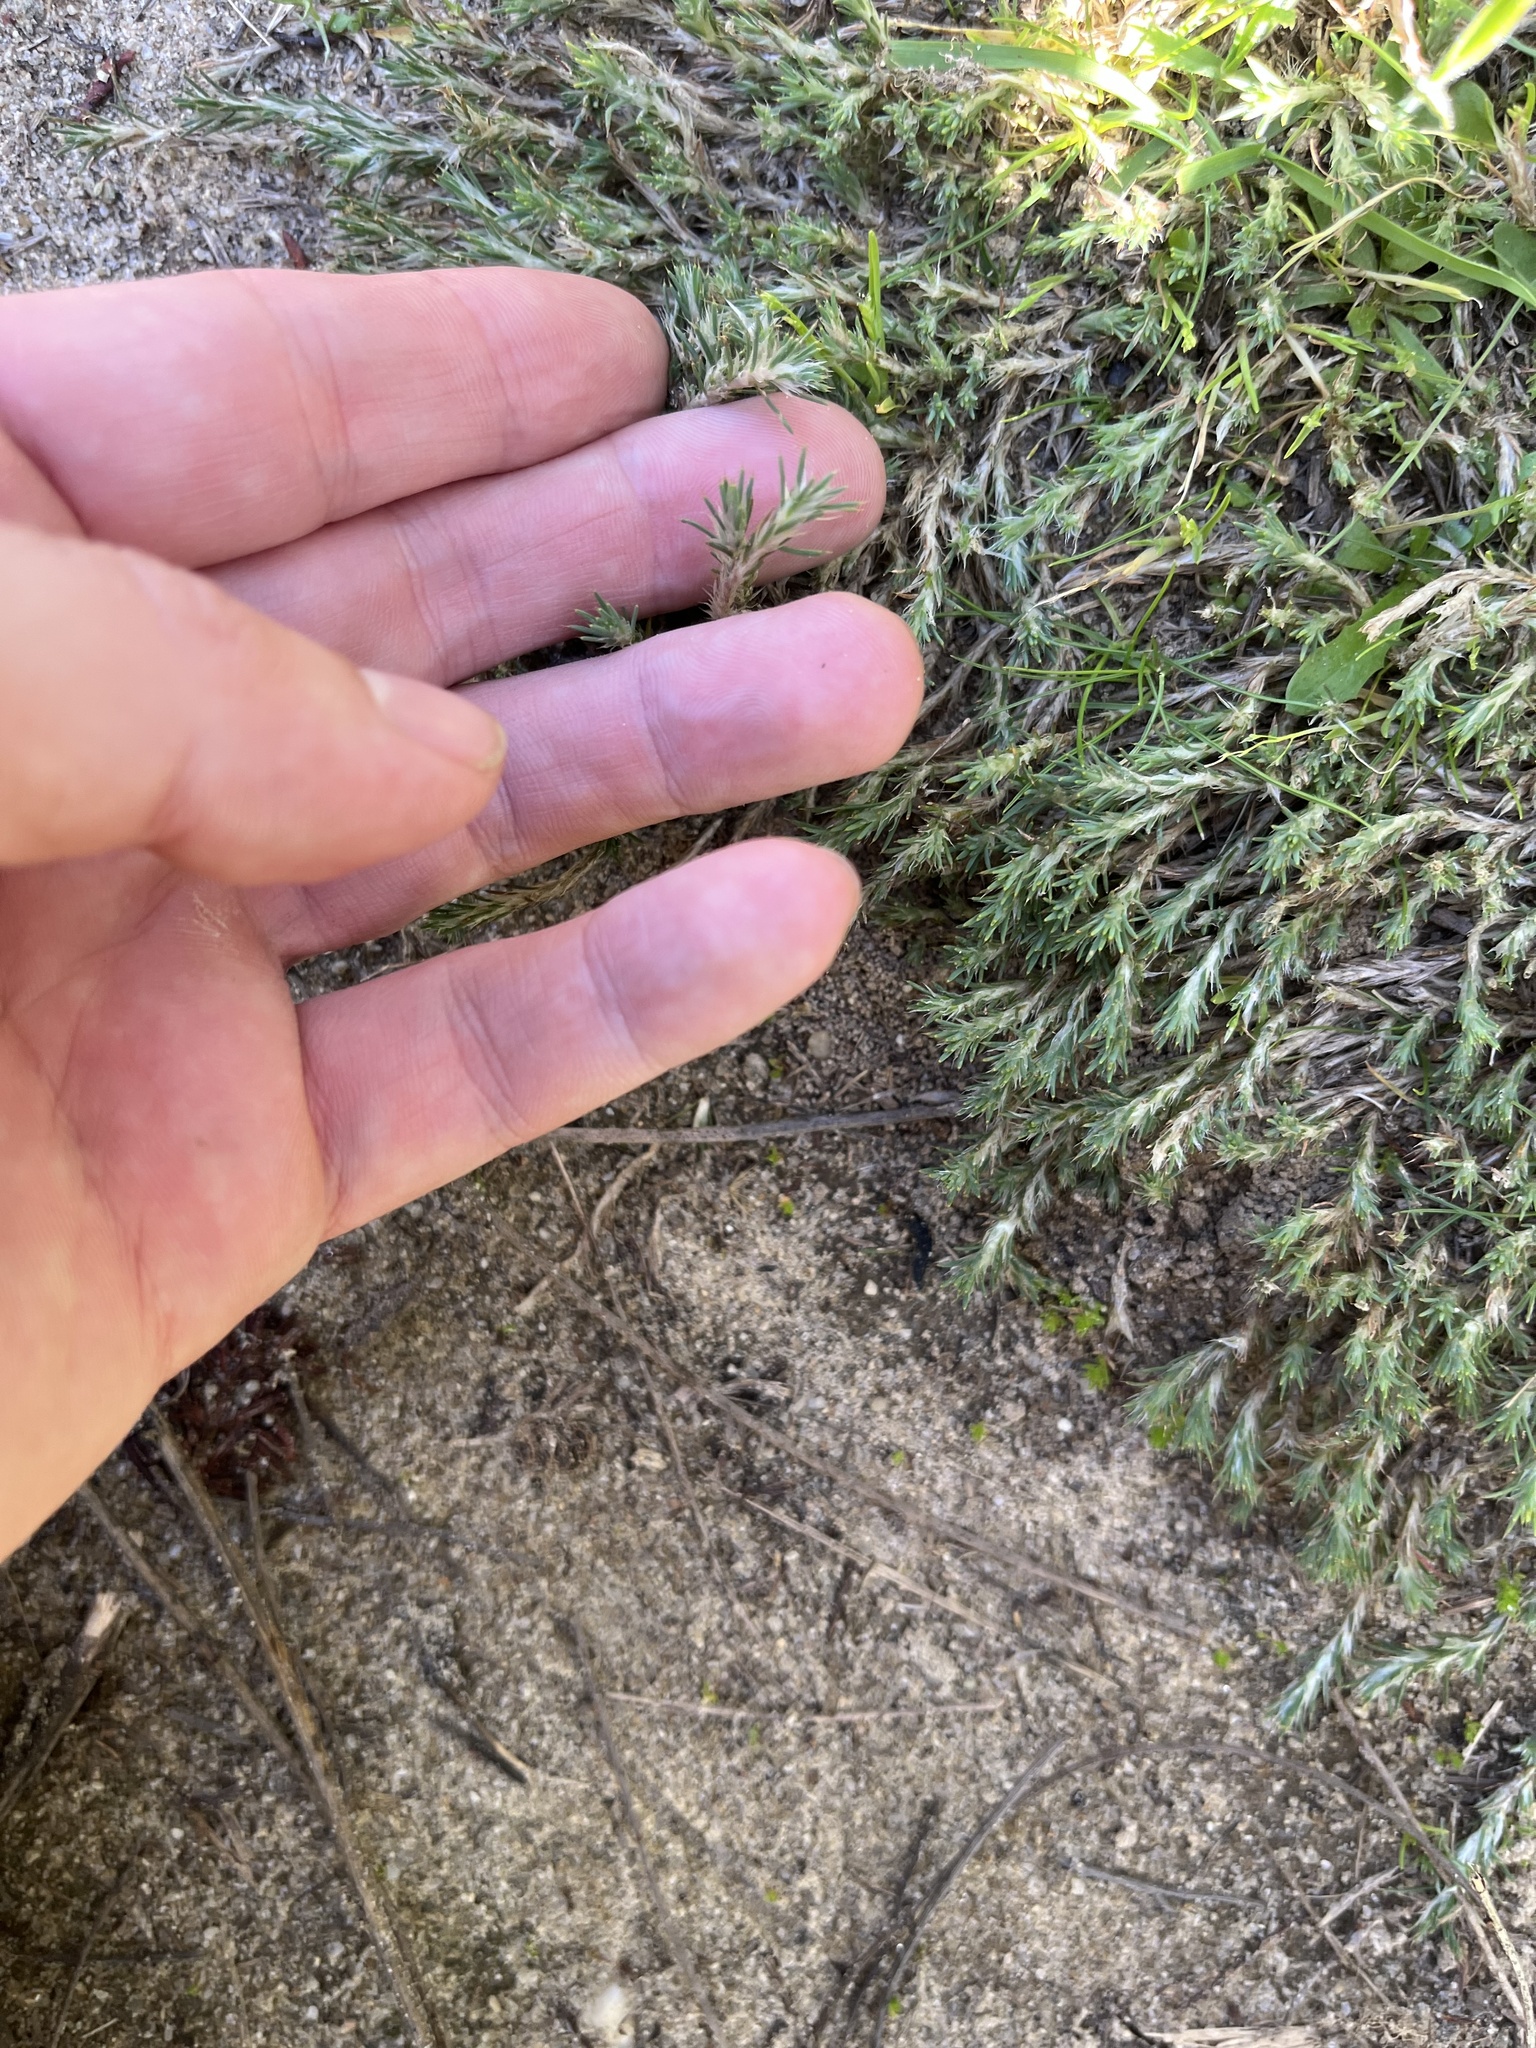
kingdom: Plantae
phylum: Tracheophyta
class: Magnoliopsida
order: Caryophyllales
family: Caryophyllaceae
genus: Cardionema
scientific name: Cardionema ramosissima
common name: Sandcarpet
